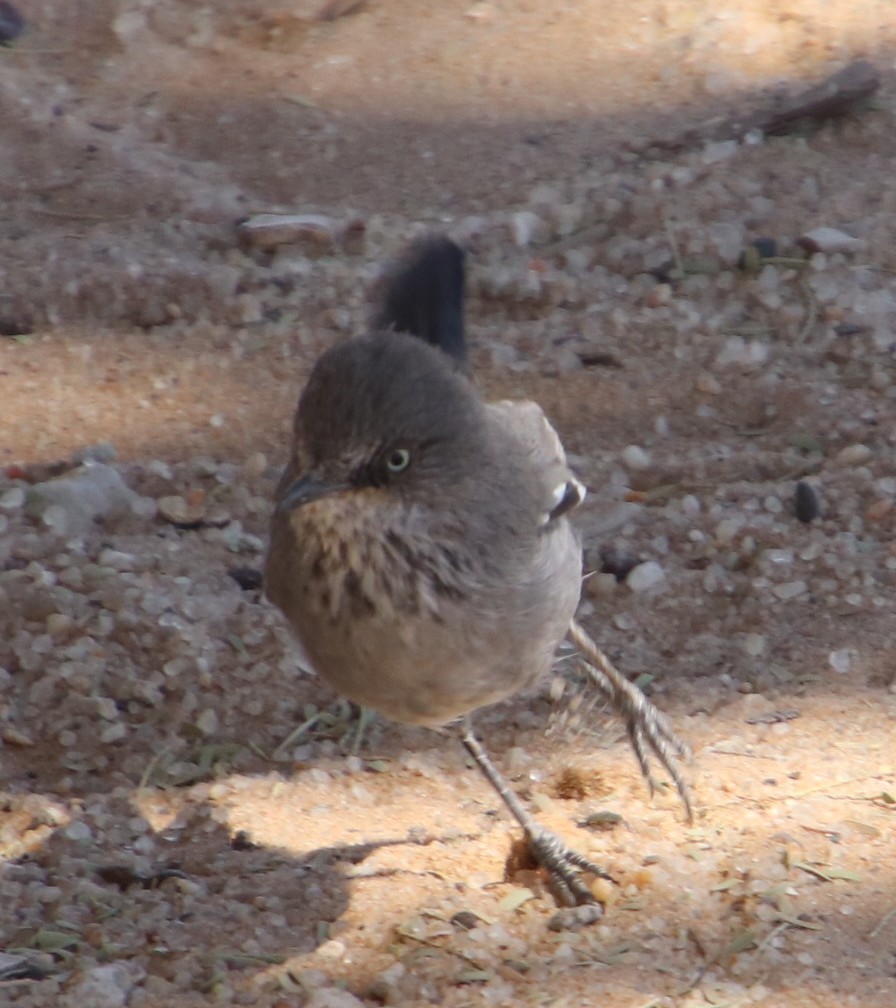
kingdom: Animalia
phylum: Chordata
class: Aves
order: Passeriformes
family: Sylviidae
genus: Curruca
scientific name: Curruca subcoerulea
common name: Chestnut-vented warbler
